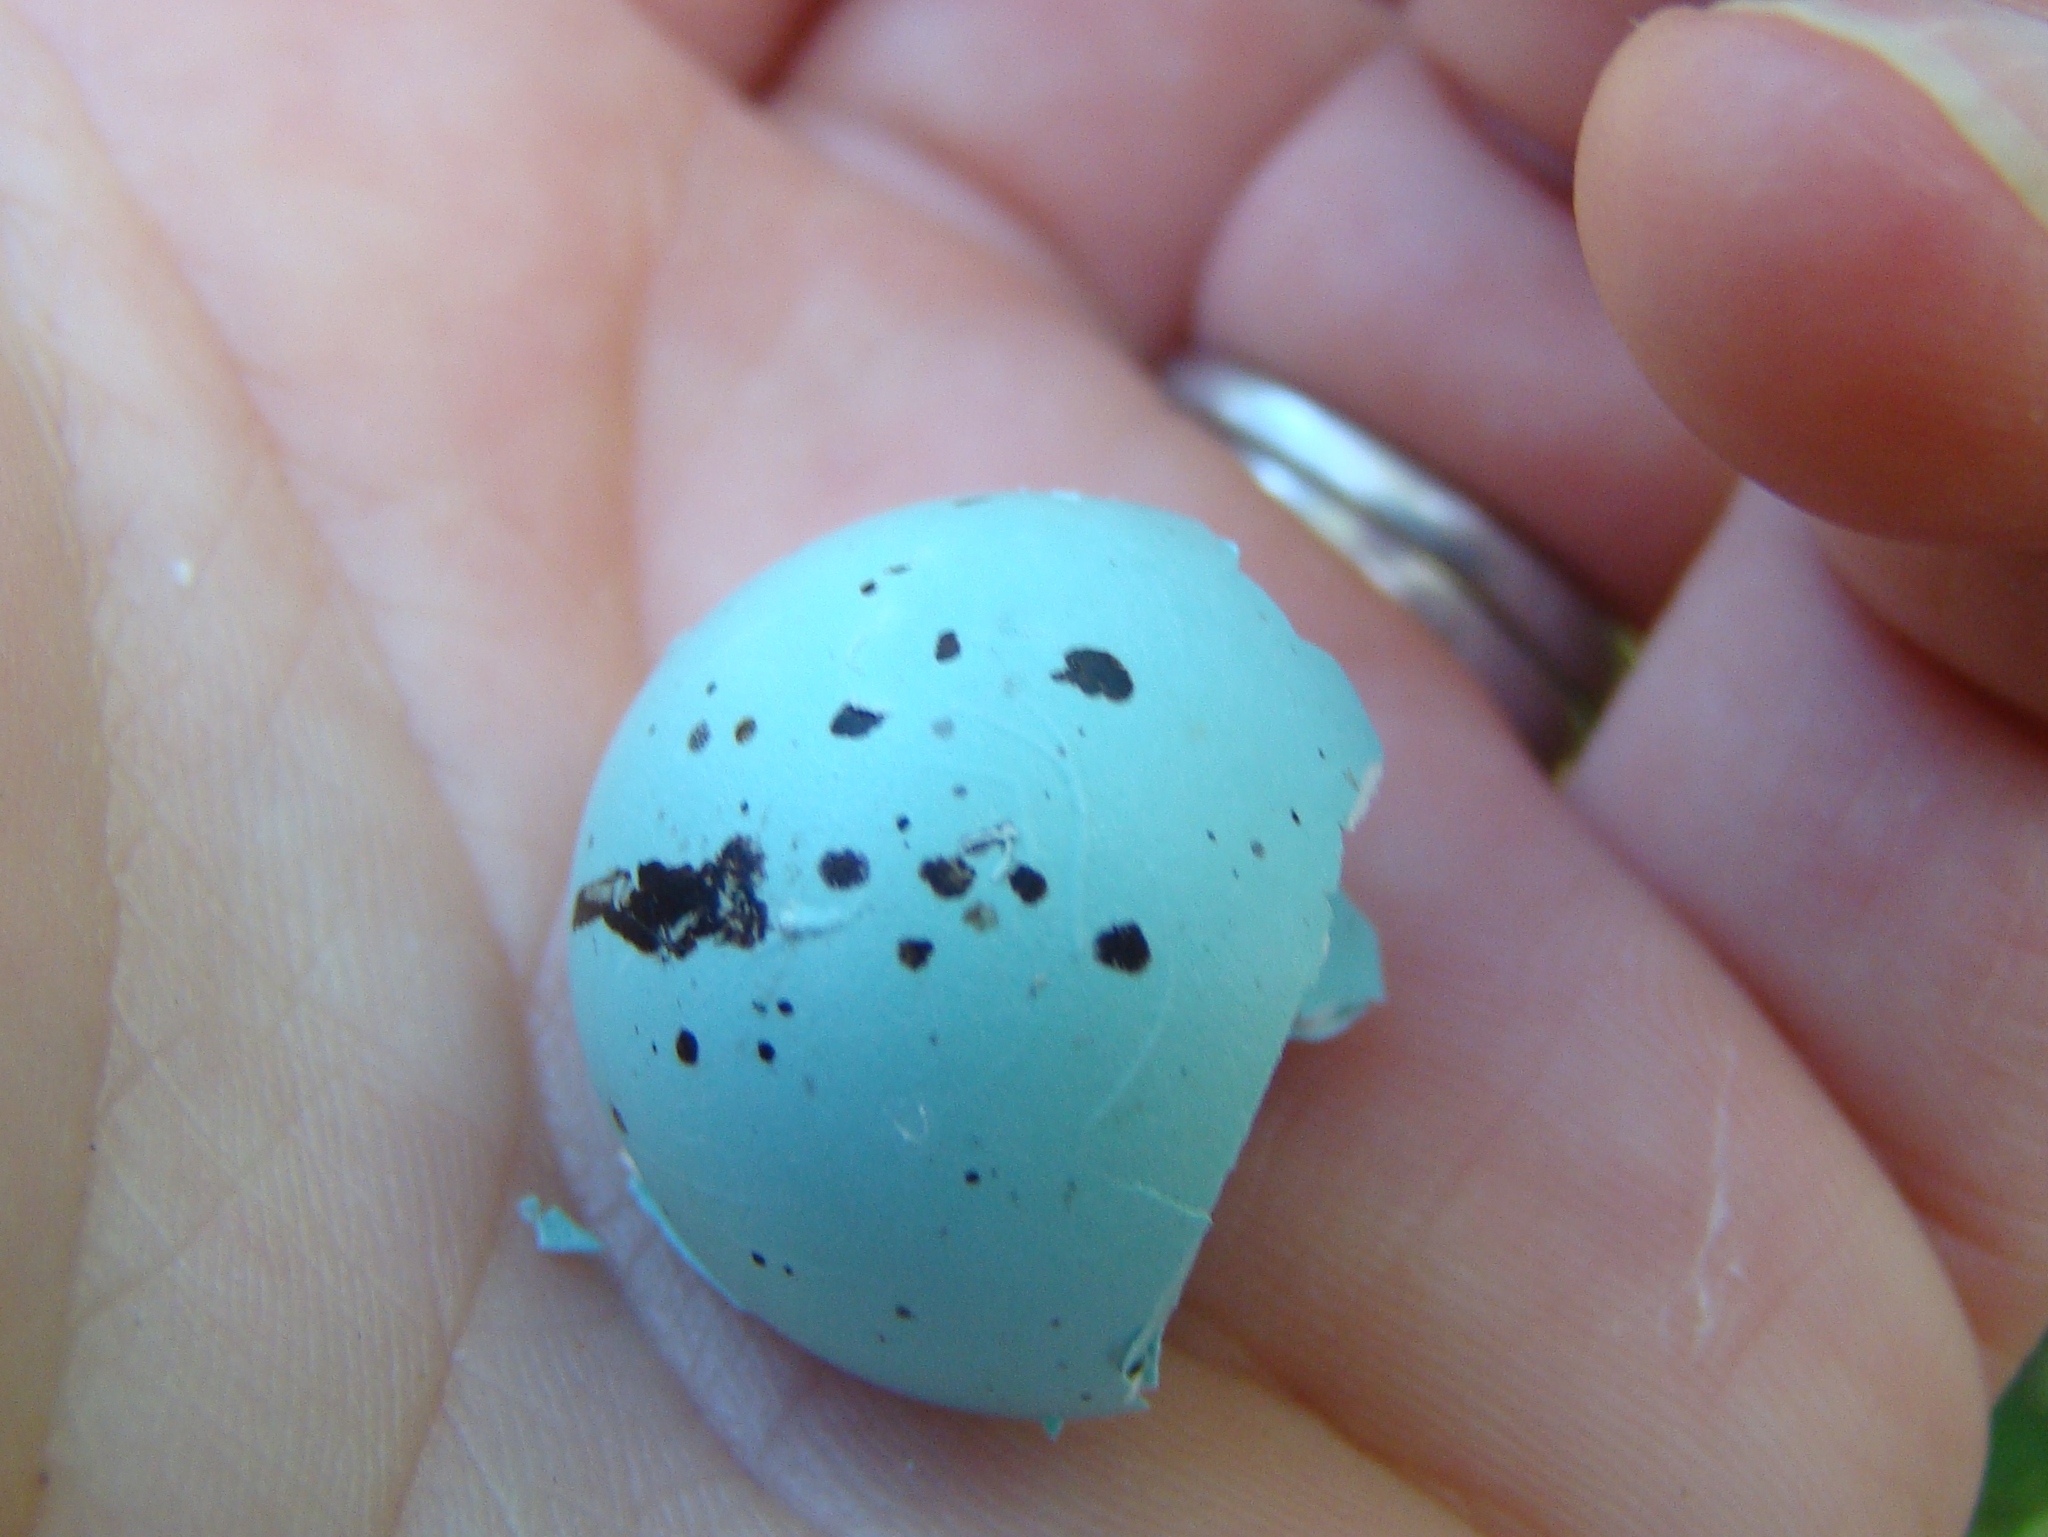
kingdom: Animalia
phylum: Chordata
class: Aves
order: Passeriformes
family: Turdidae
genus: Turdus
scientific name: Turdus philomelos
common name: Song thrush
